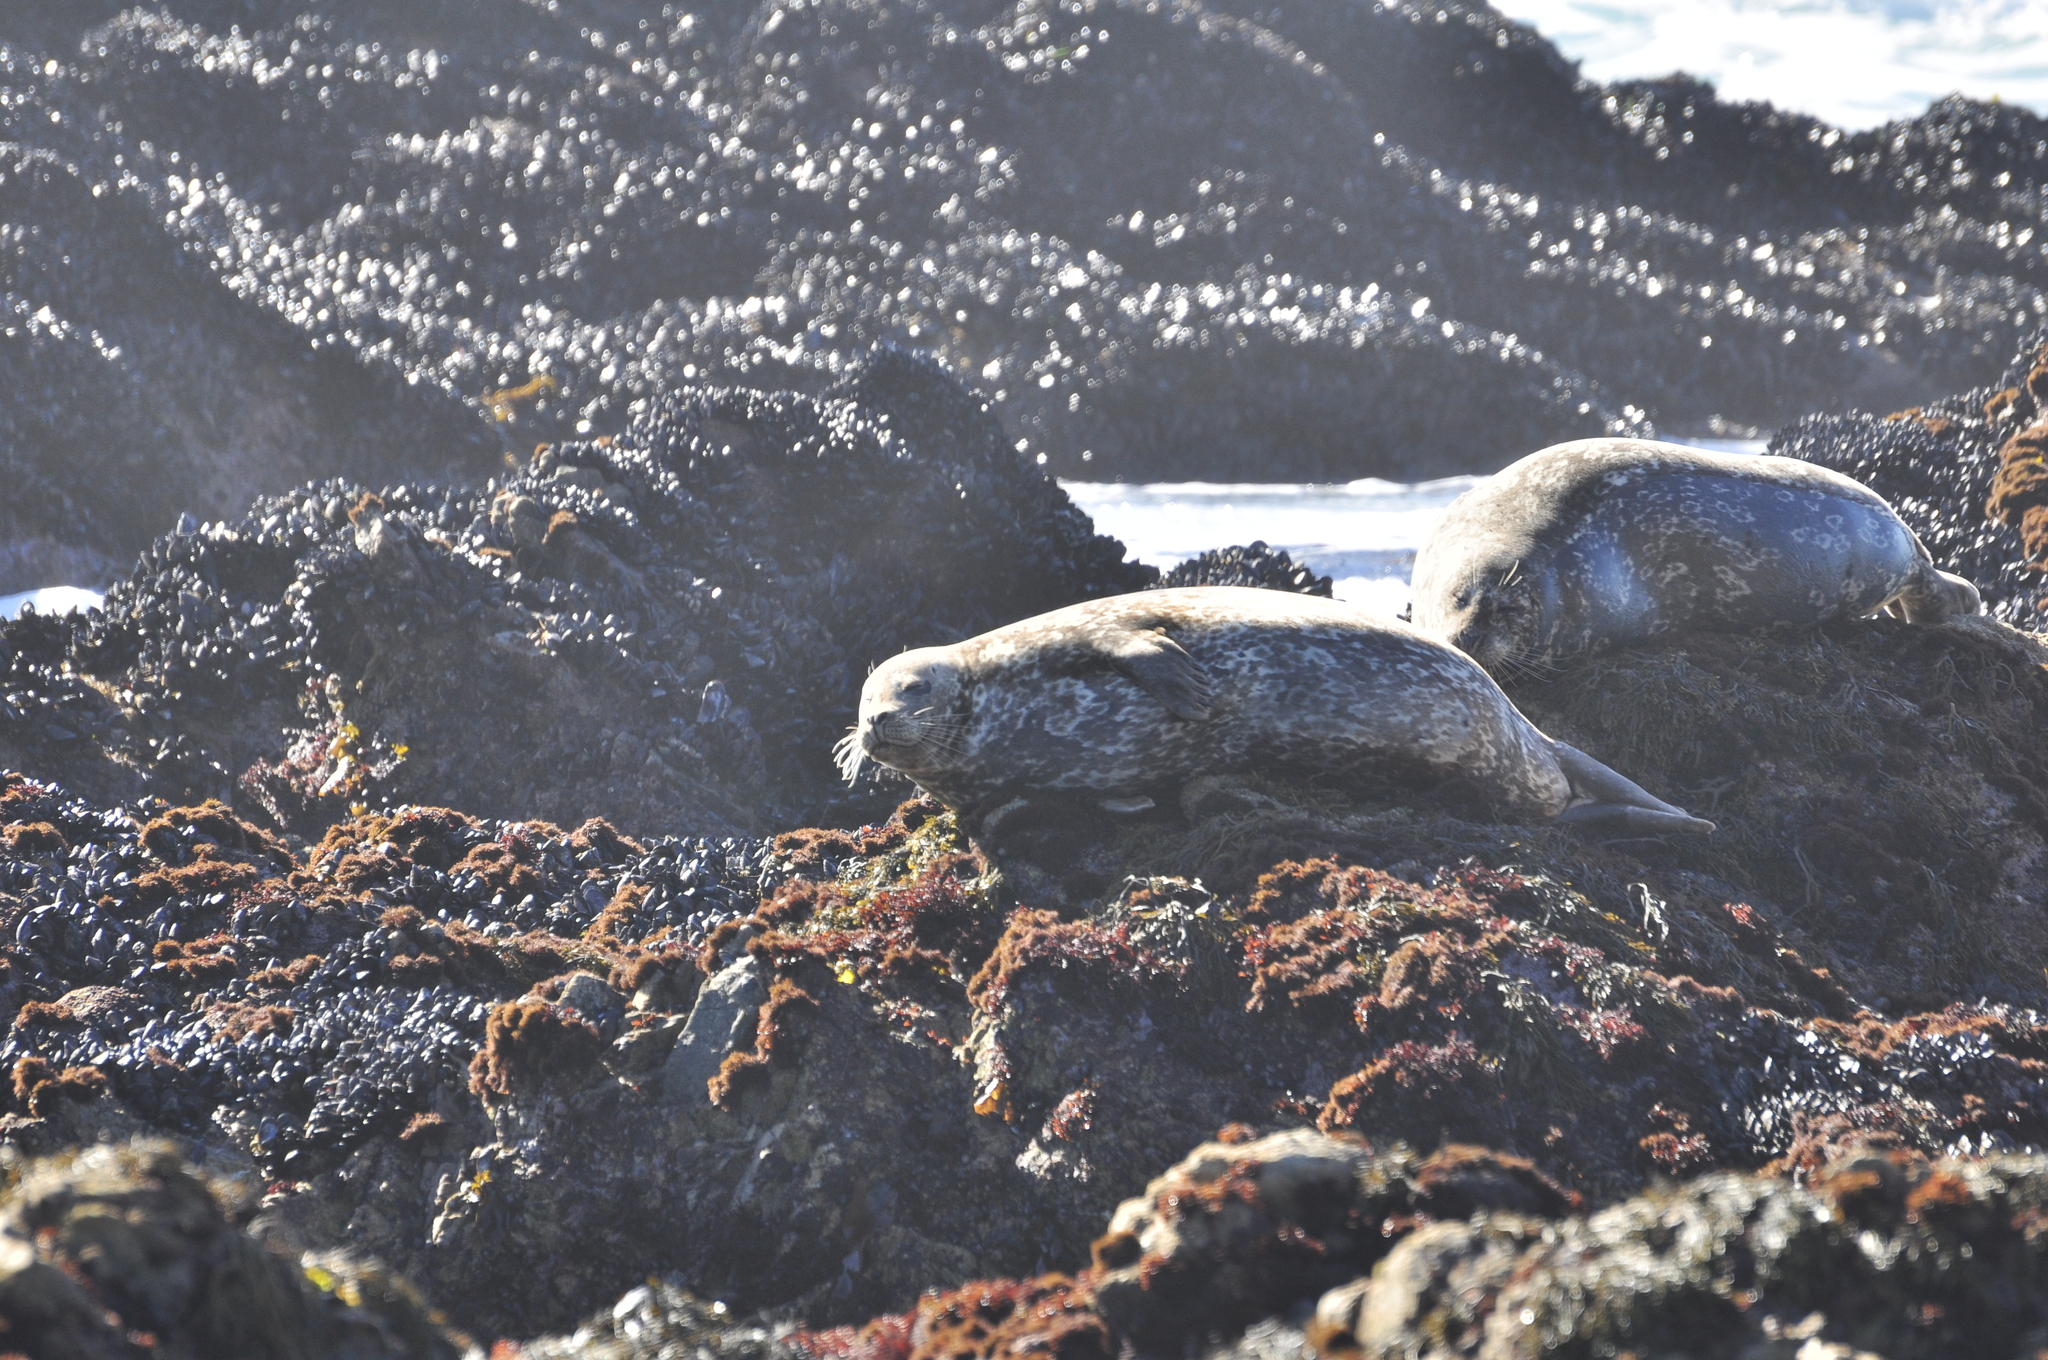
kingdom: Animalia
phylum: Chordata
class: Mammalia
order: Carnivora
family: Phocidae
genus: Phoca
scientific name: Phoca vitulina
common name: Harbor seal
